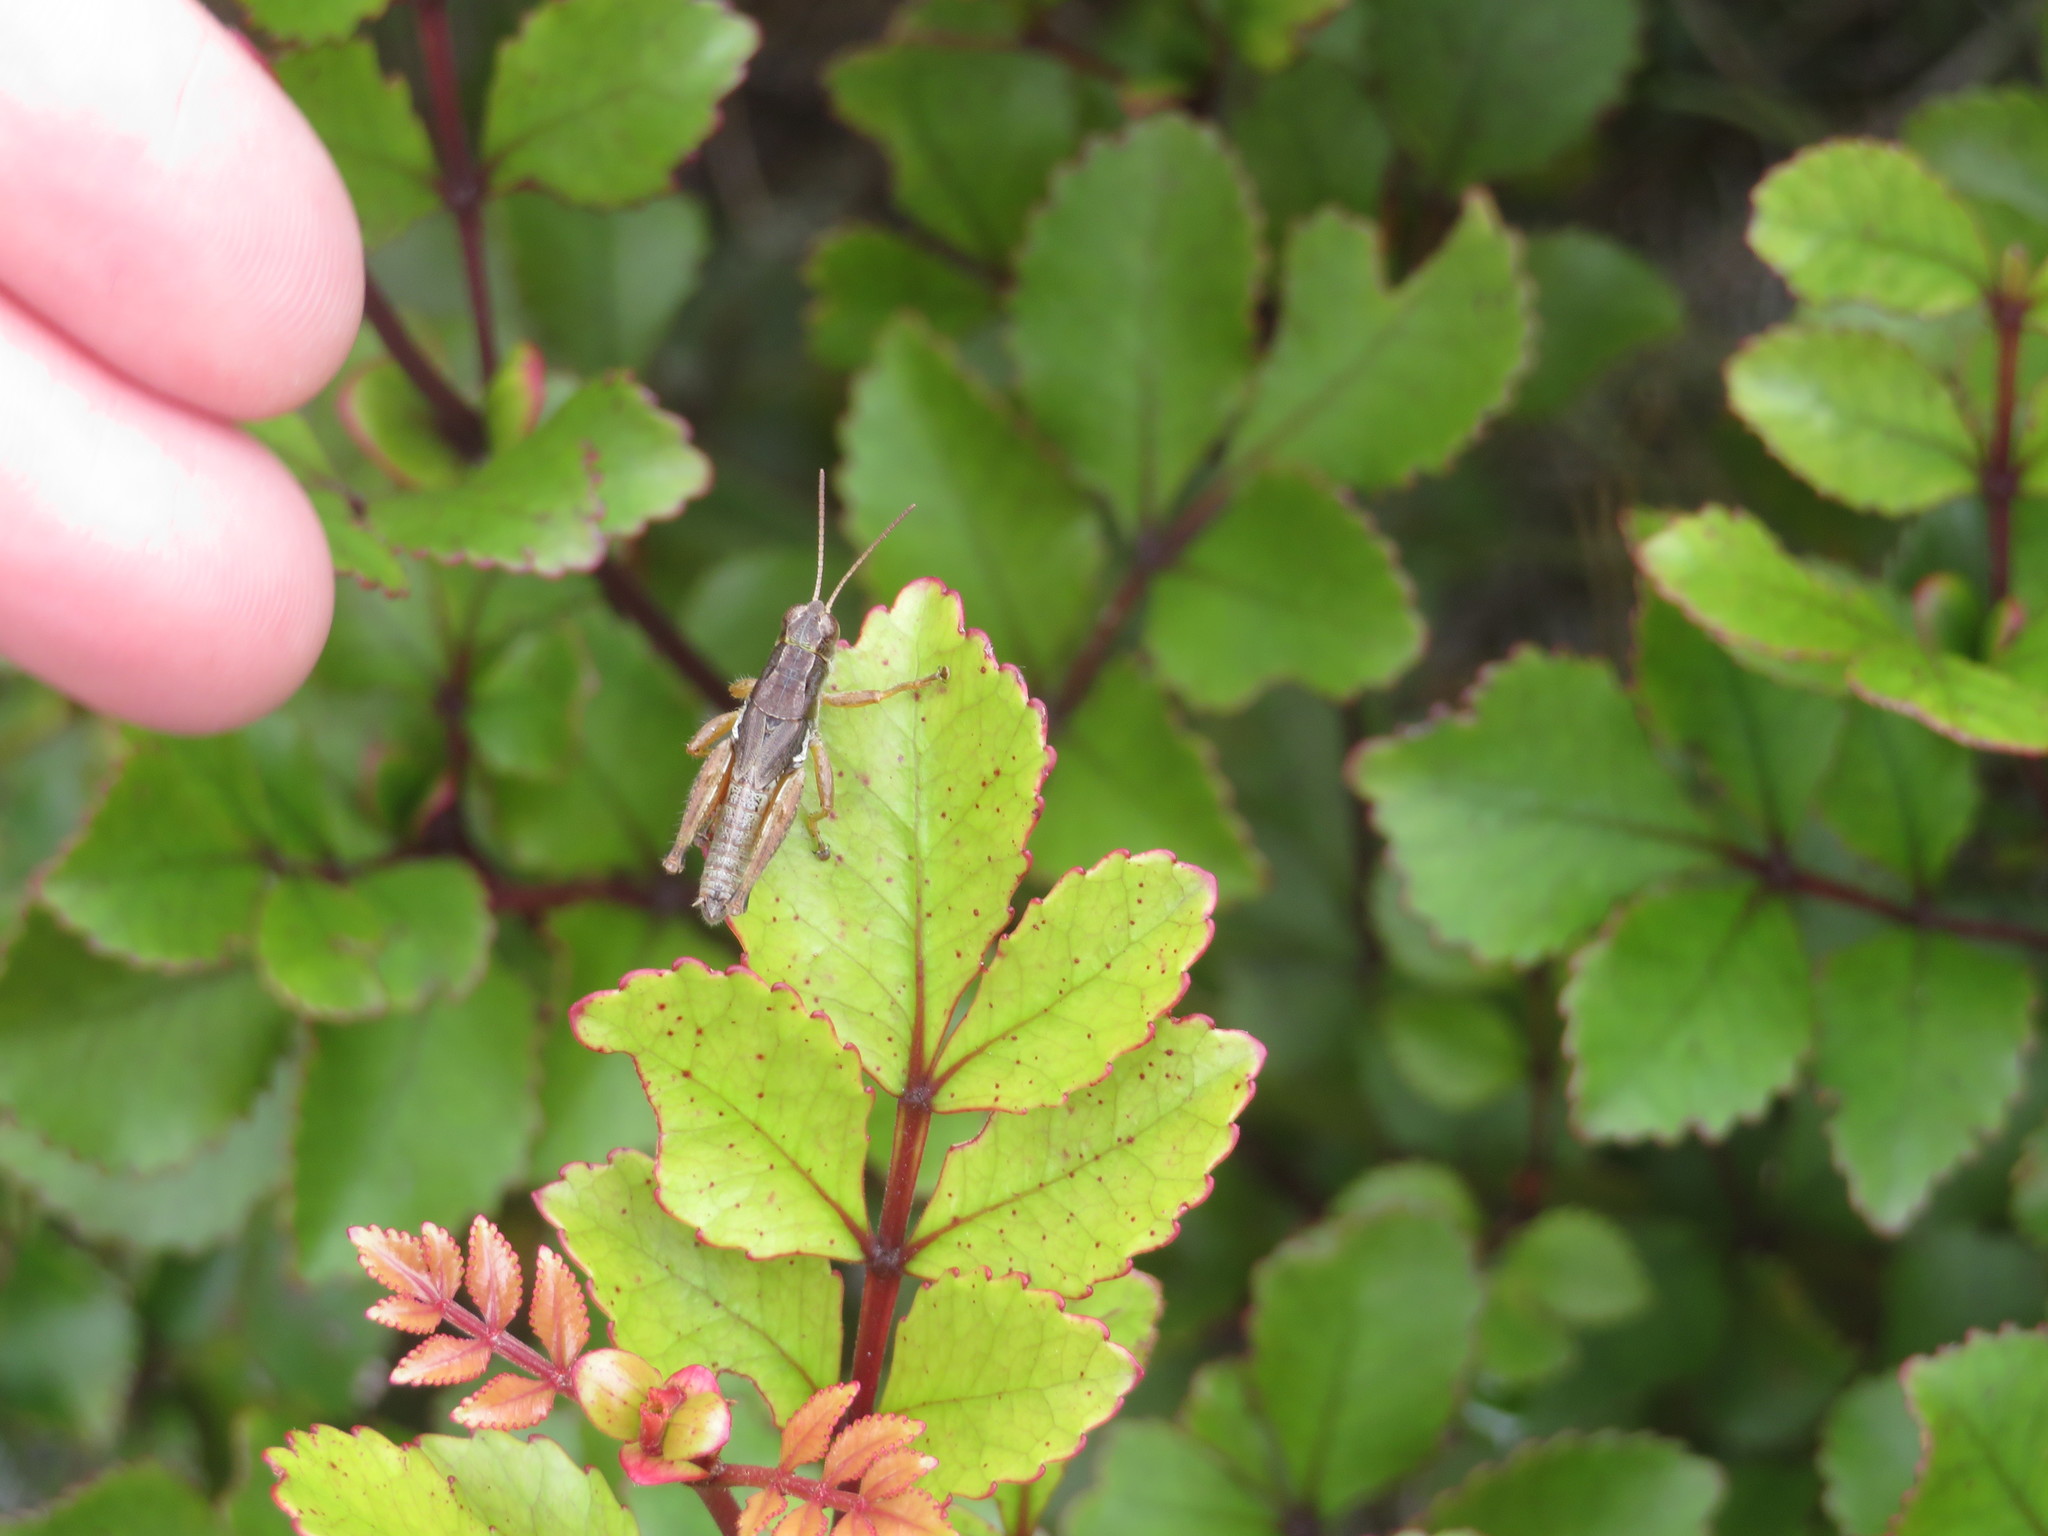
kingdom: Animalia
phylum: Arthropoda
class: Insecta
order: Orthoptera
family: Acrididae
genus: Phaulacridium
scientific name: Phaulacridium marginale
